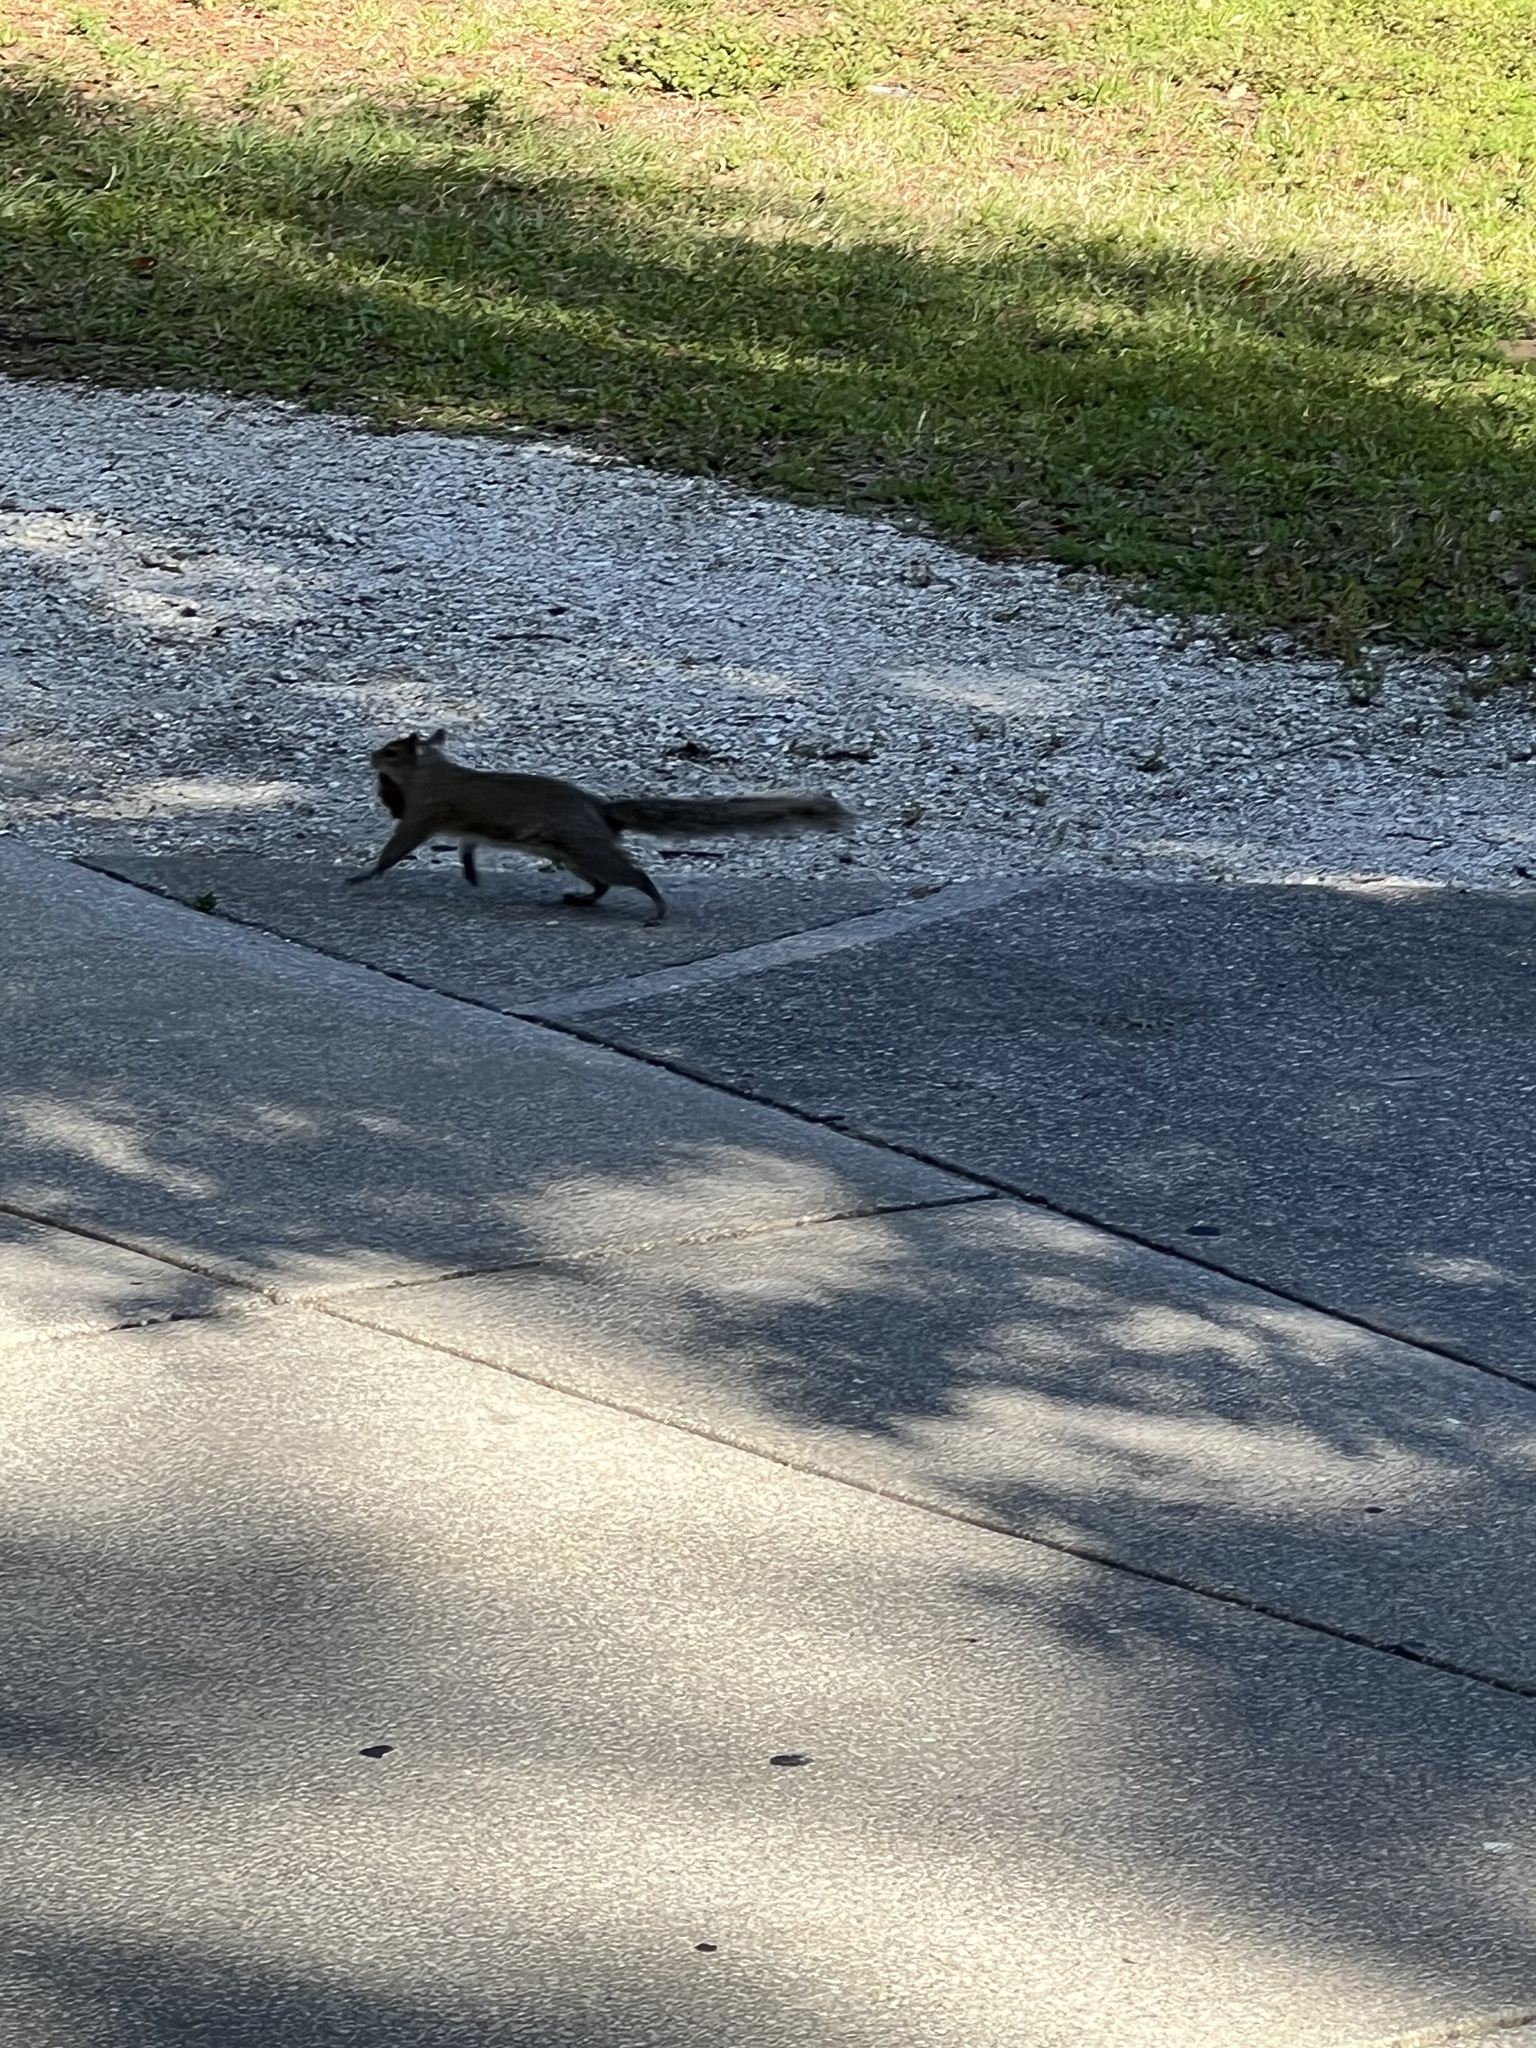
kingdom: Animalia
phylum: Chordata
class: Mammalia
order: Rodentia
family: Sciuridae
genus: Sciurus
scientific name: Sciurus carolinensis
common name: Eastern gray squirrel
